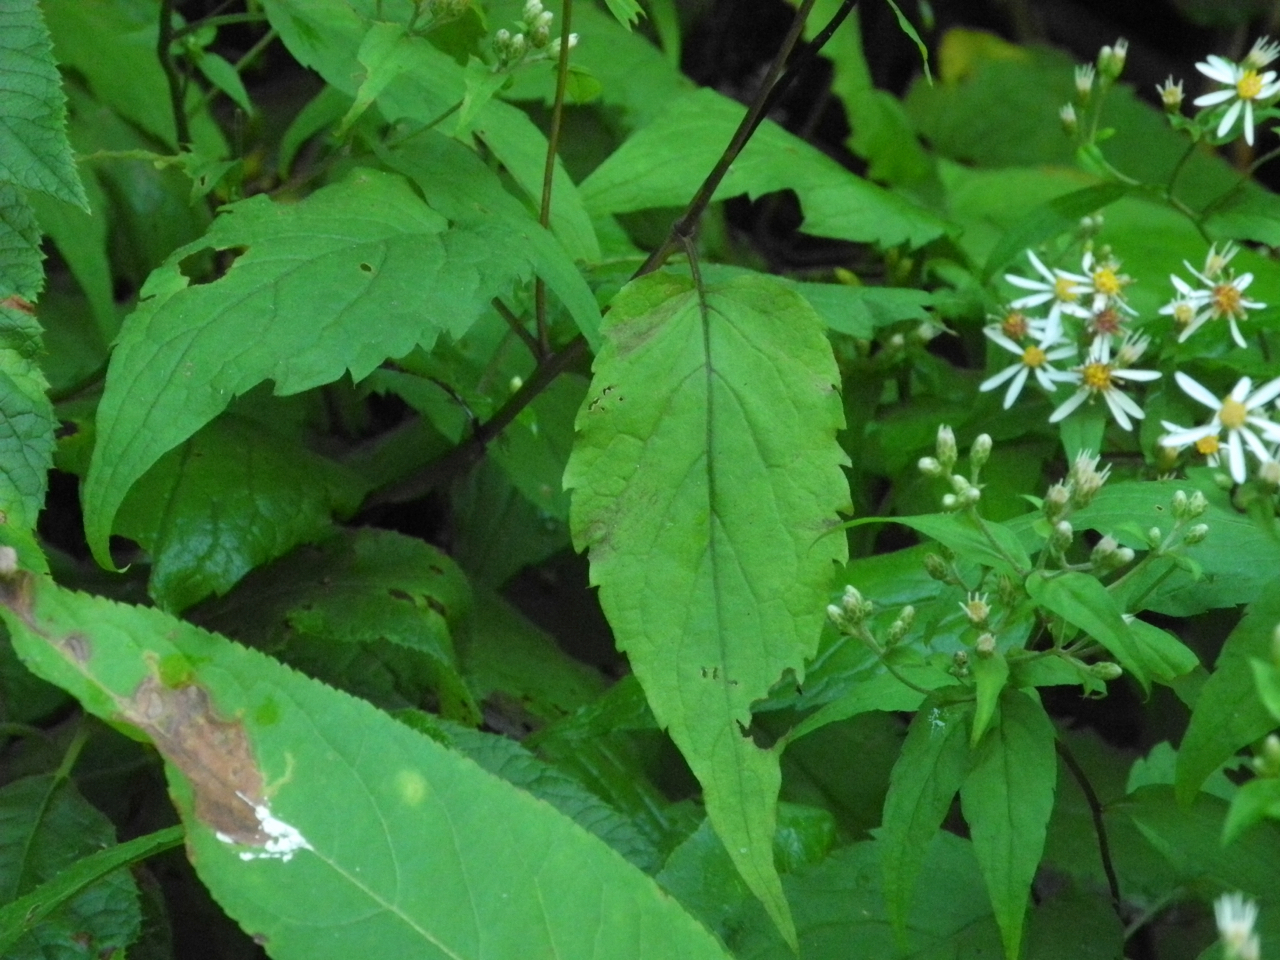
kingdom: Plantae
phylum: Tracheophyta
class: Magnoliopsida
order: Asterales
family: Asteraceae
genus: Eurybia
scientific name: Eurybia divaricata
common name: White wood aster
